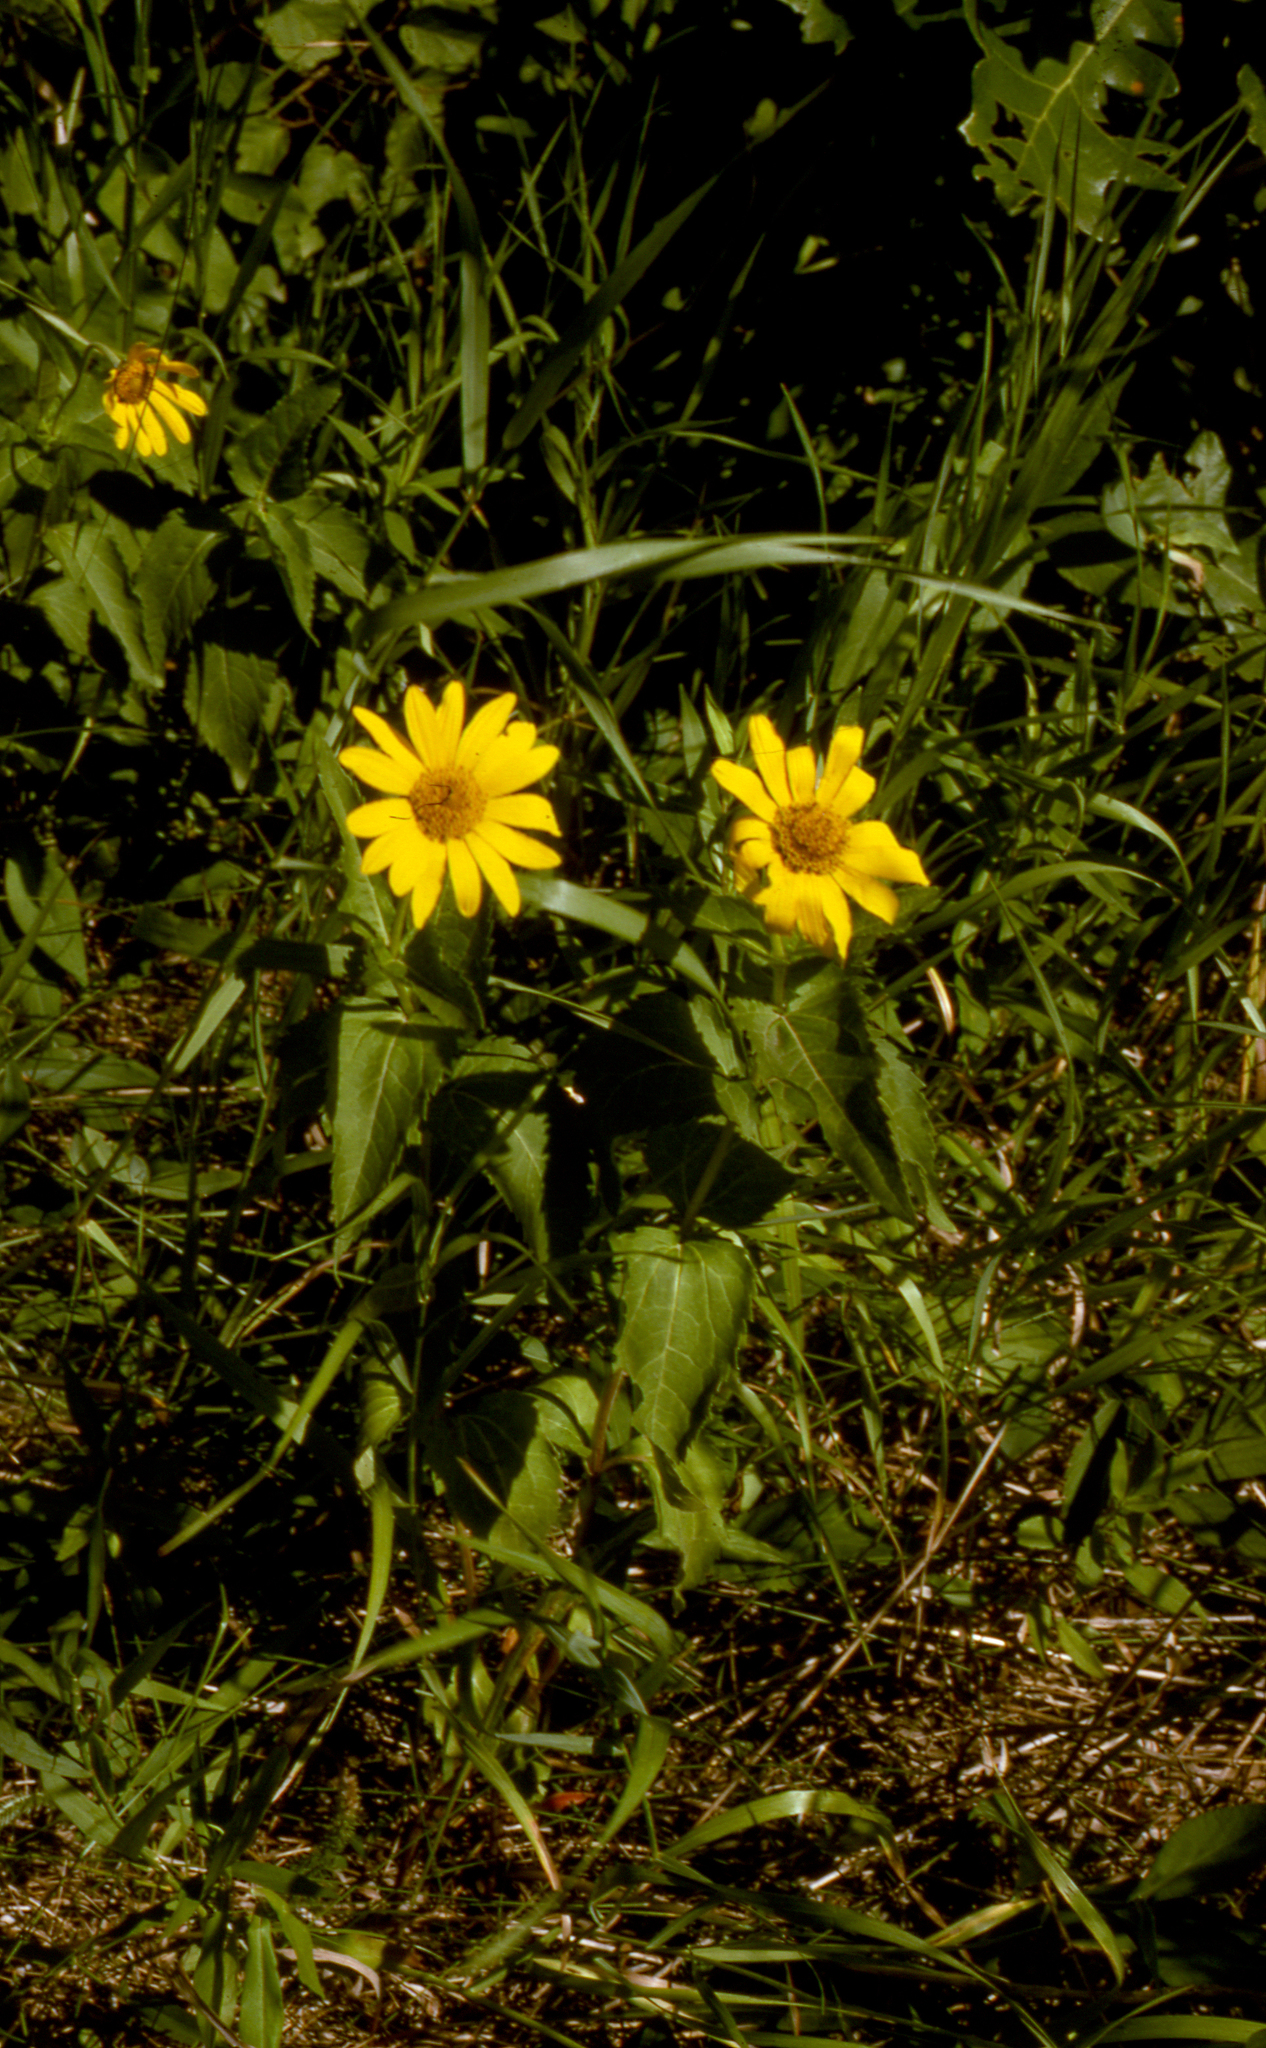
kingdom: Plantae
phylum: Tracheophyta
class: Magnoliopsida
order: Asterales
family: Asteraceae
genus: Heliopsis
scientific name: Heliopsis helianthoides
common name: False sunflower
